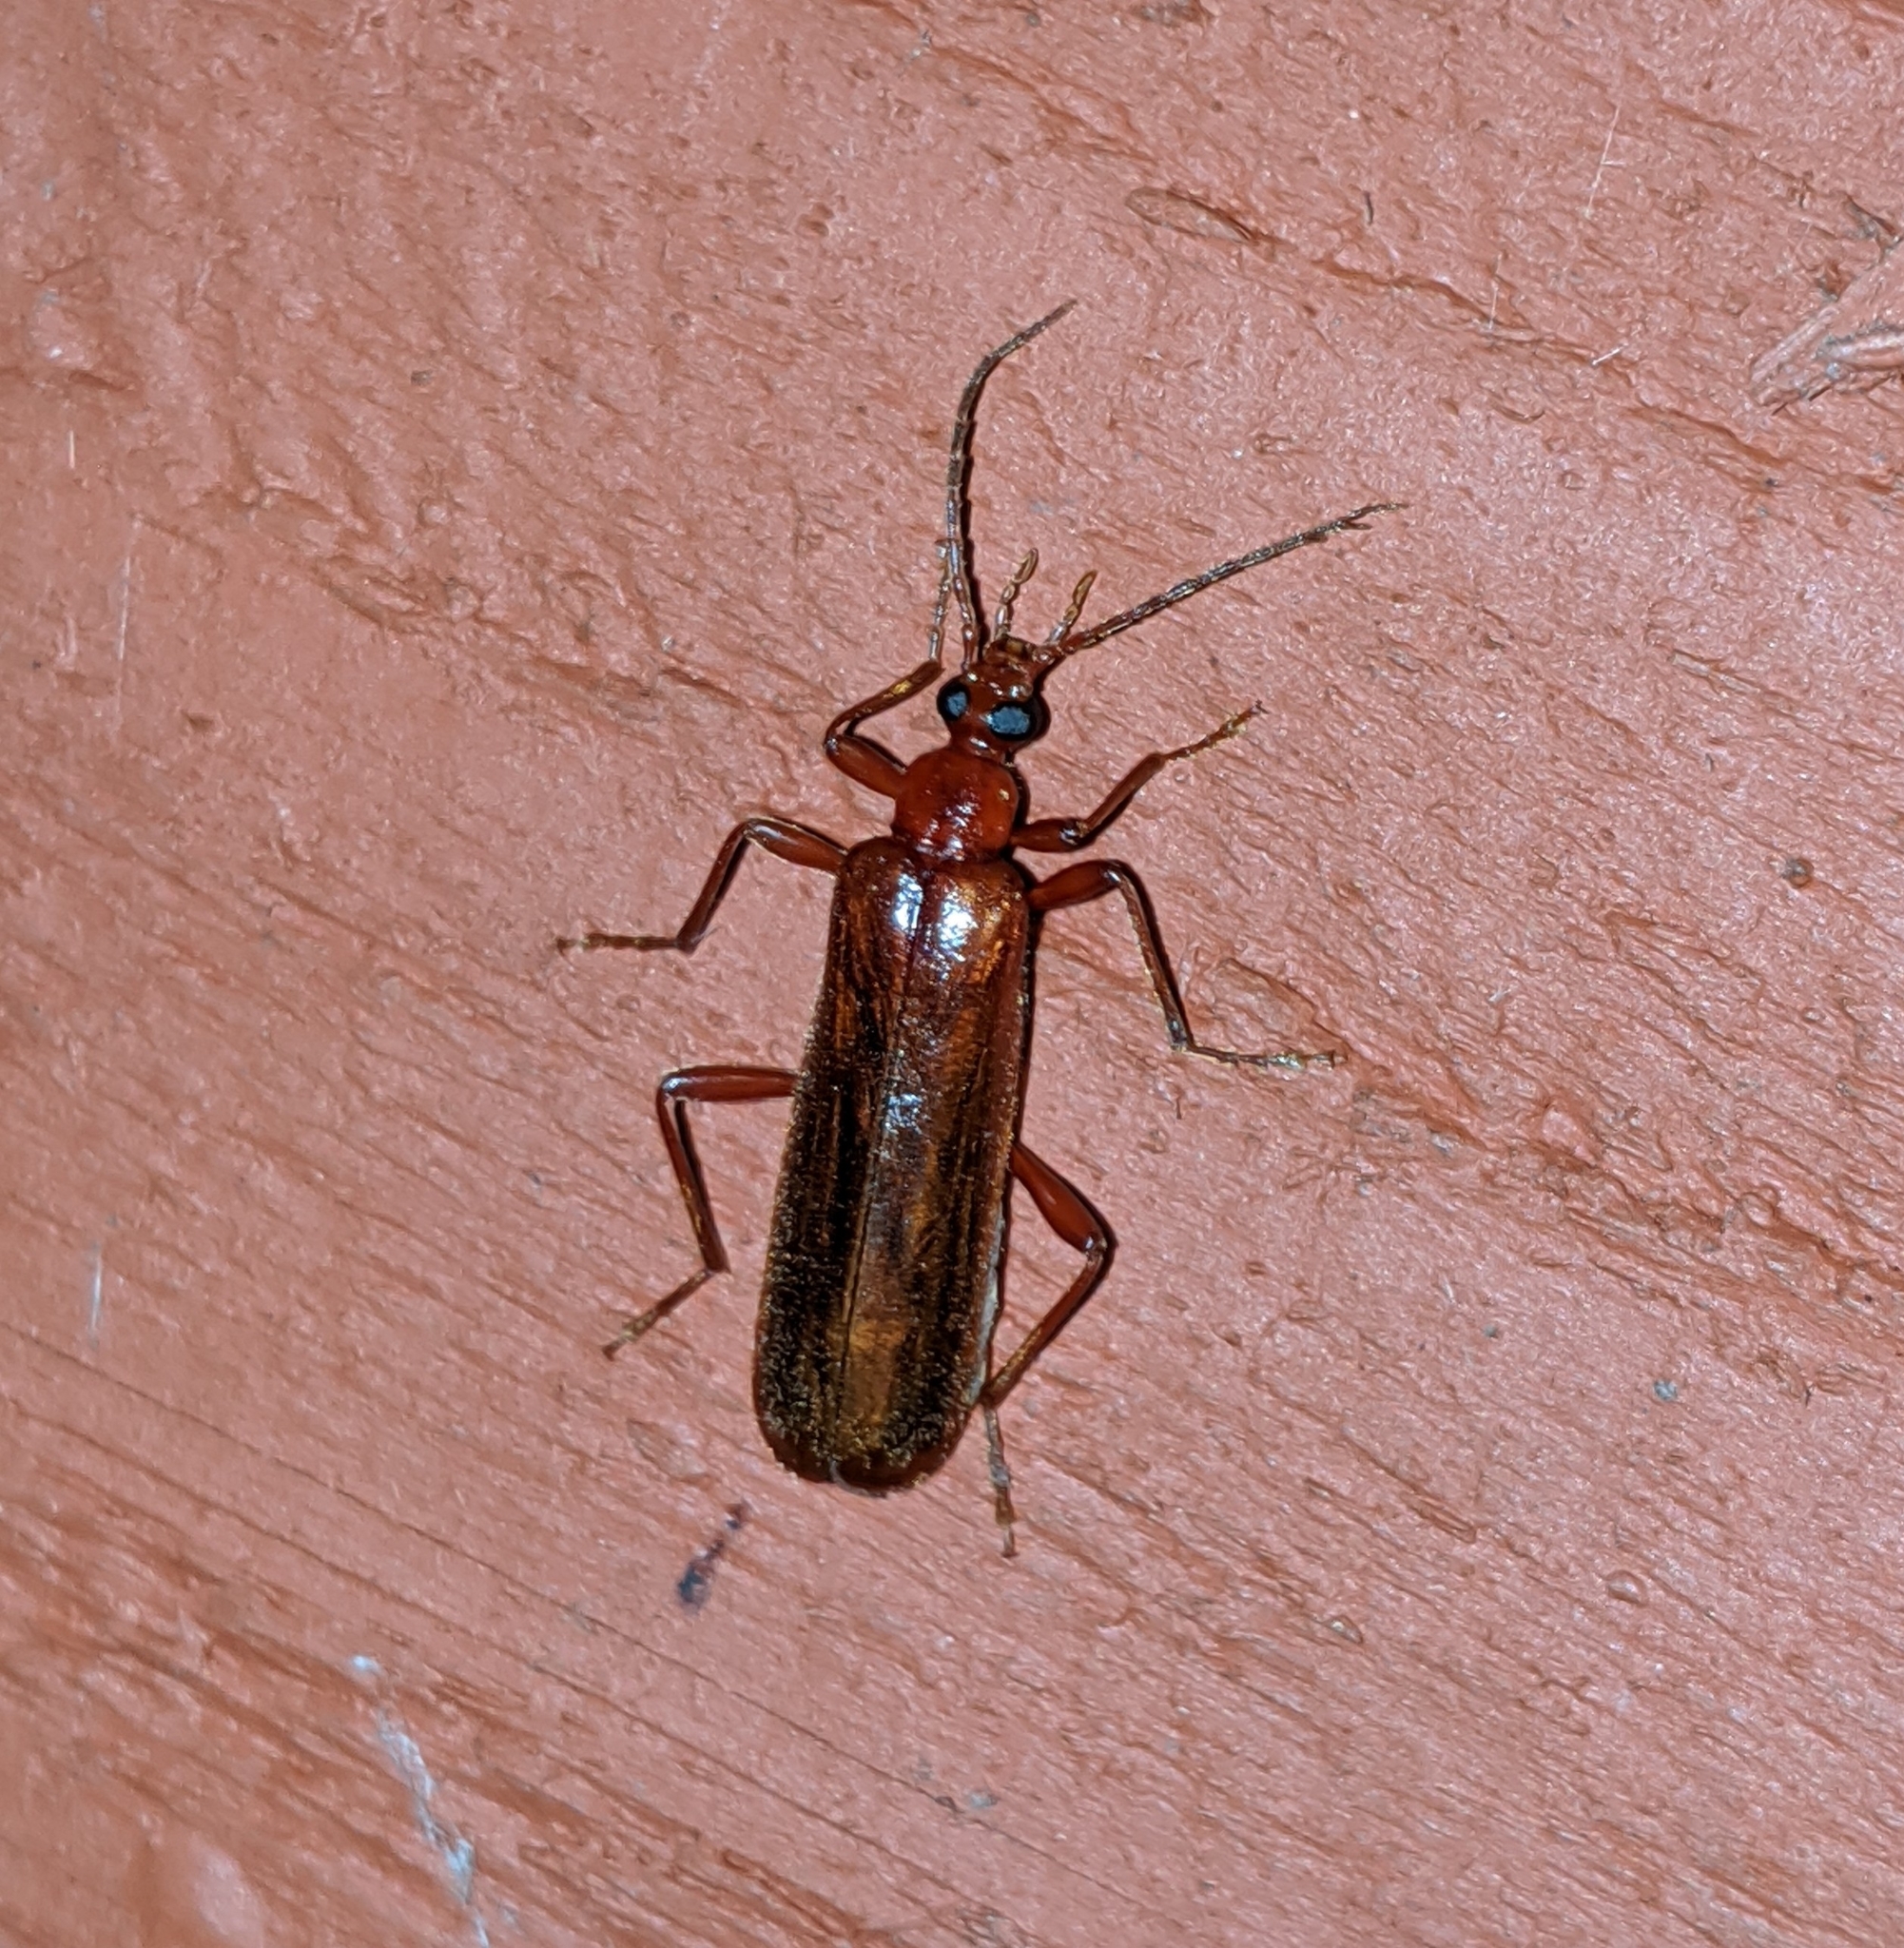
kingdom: Animalia
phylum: Arthropoda
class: Insecta
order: Coleoptera
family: Pyrochroidae
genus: Dendroides
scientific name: Dendroides ephemeroides
